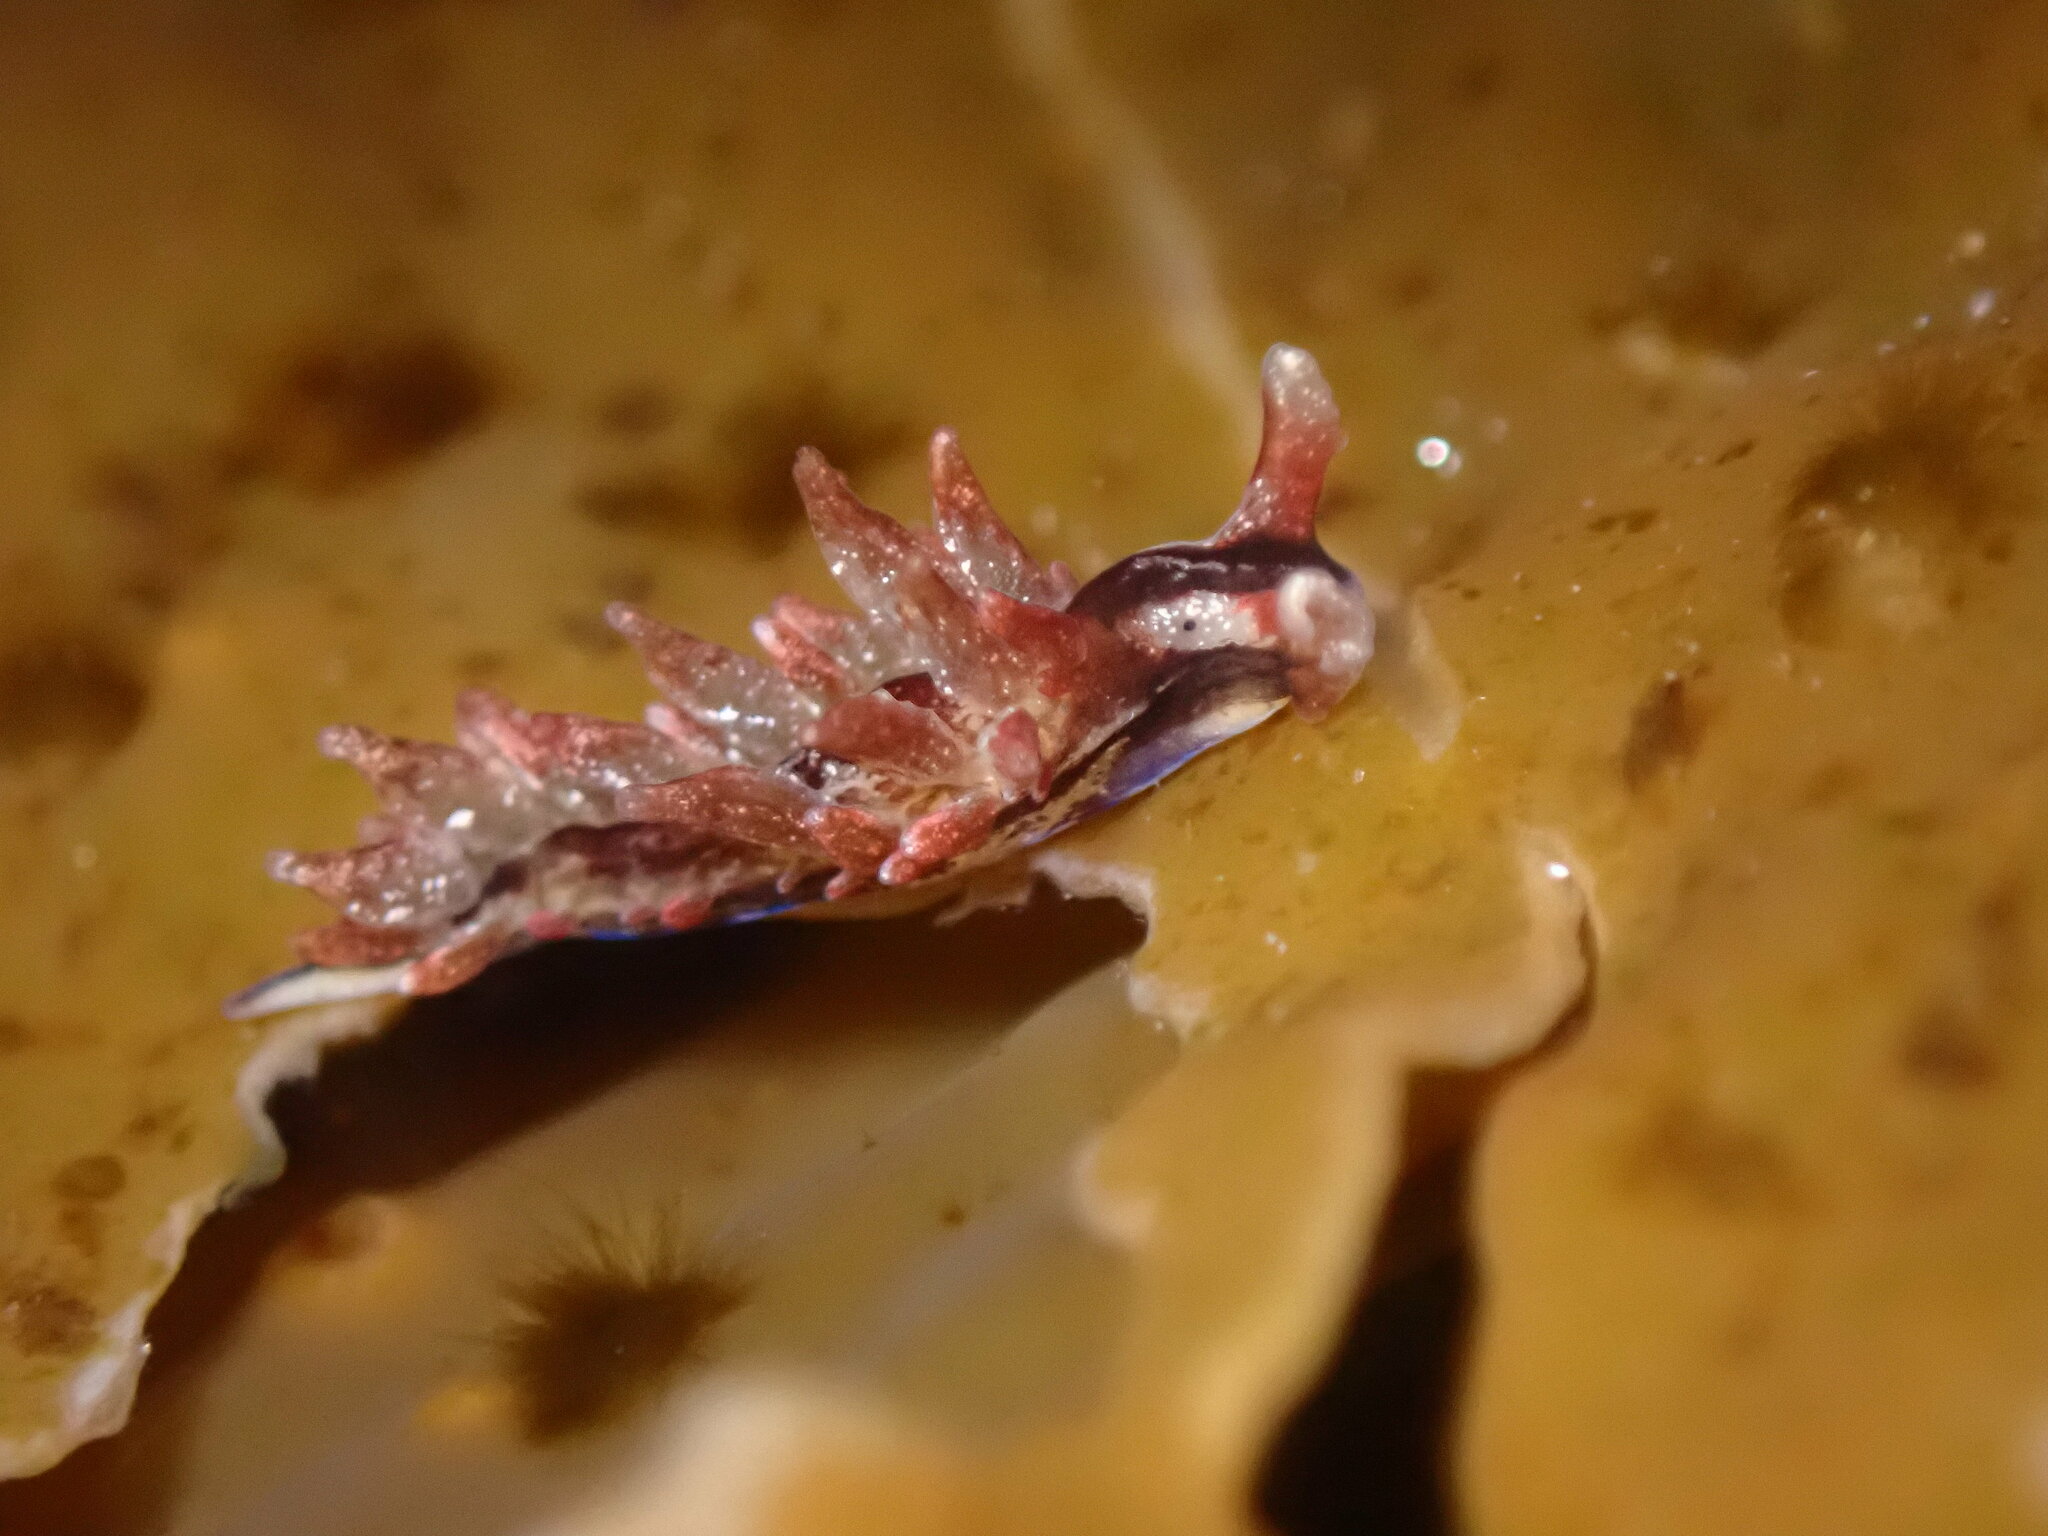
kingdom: Animalia
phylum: Mollusca
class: Gastropoda
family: Hermaeidae
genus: Aplysiopsis
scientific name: Aplysiopsis enteromorphae
